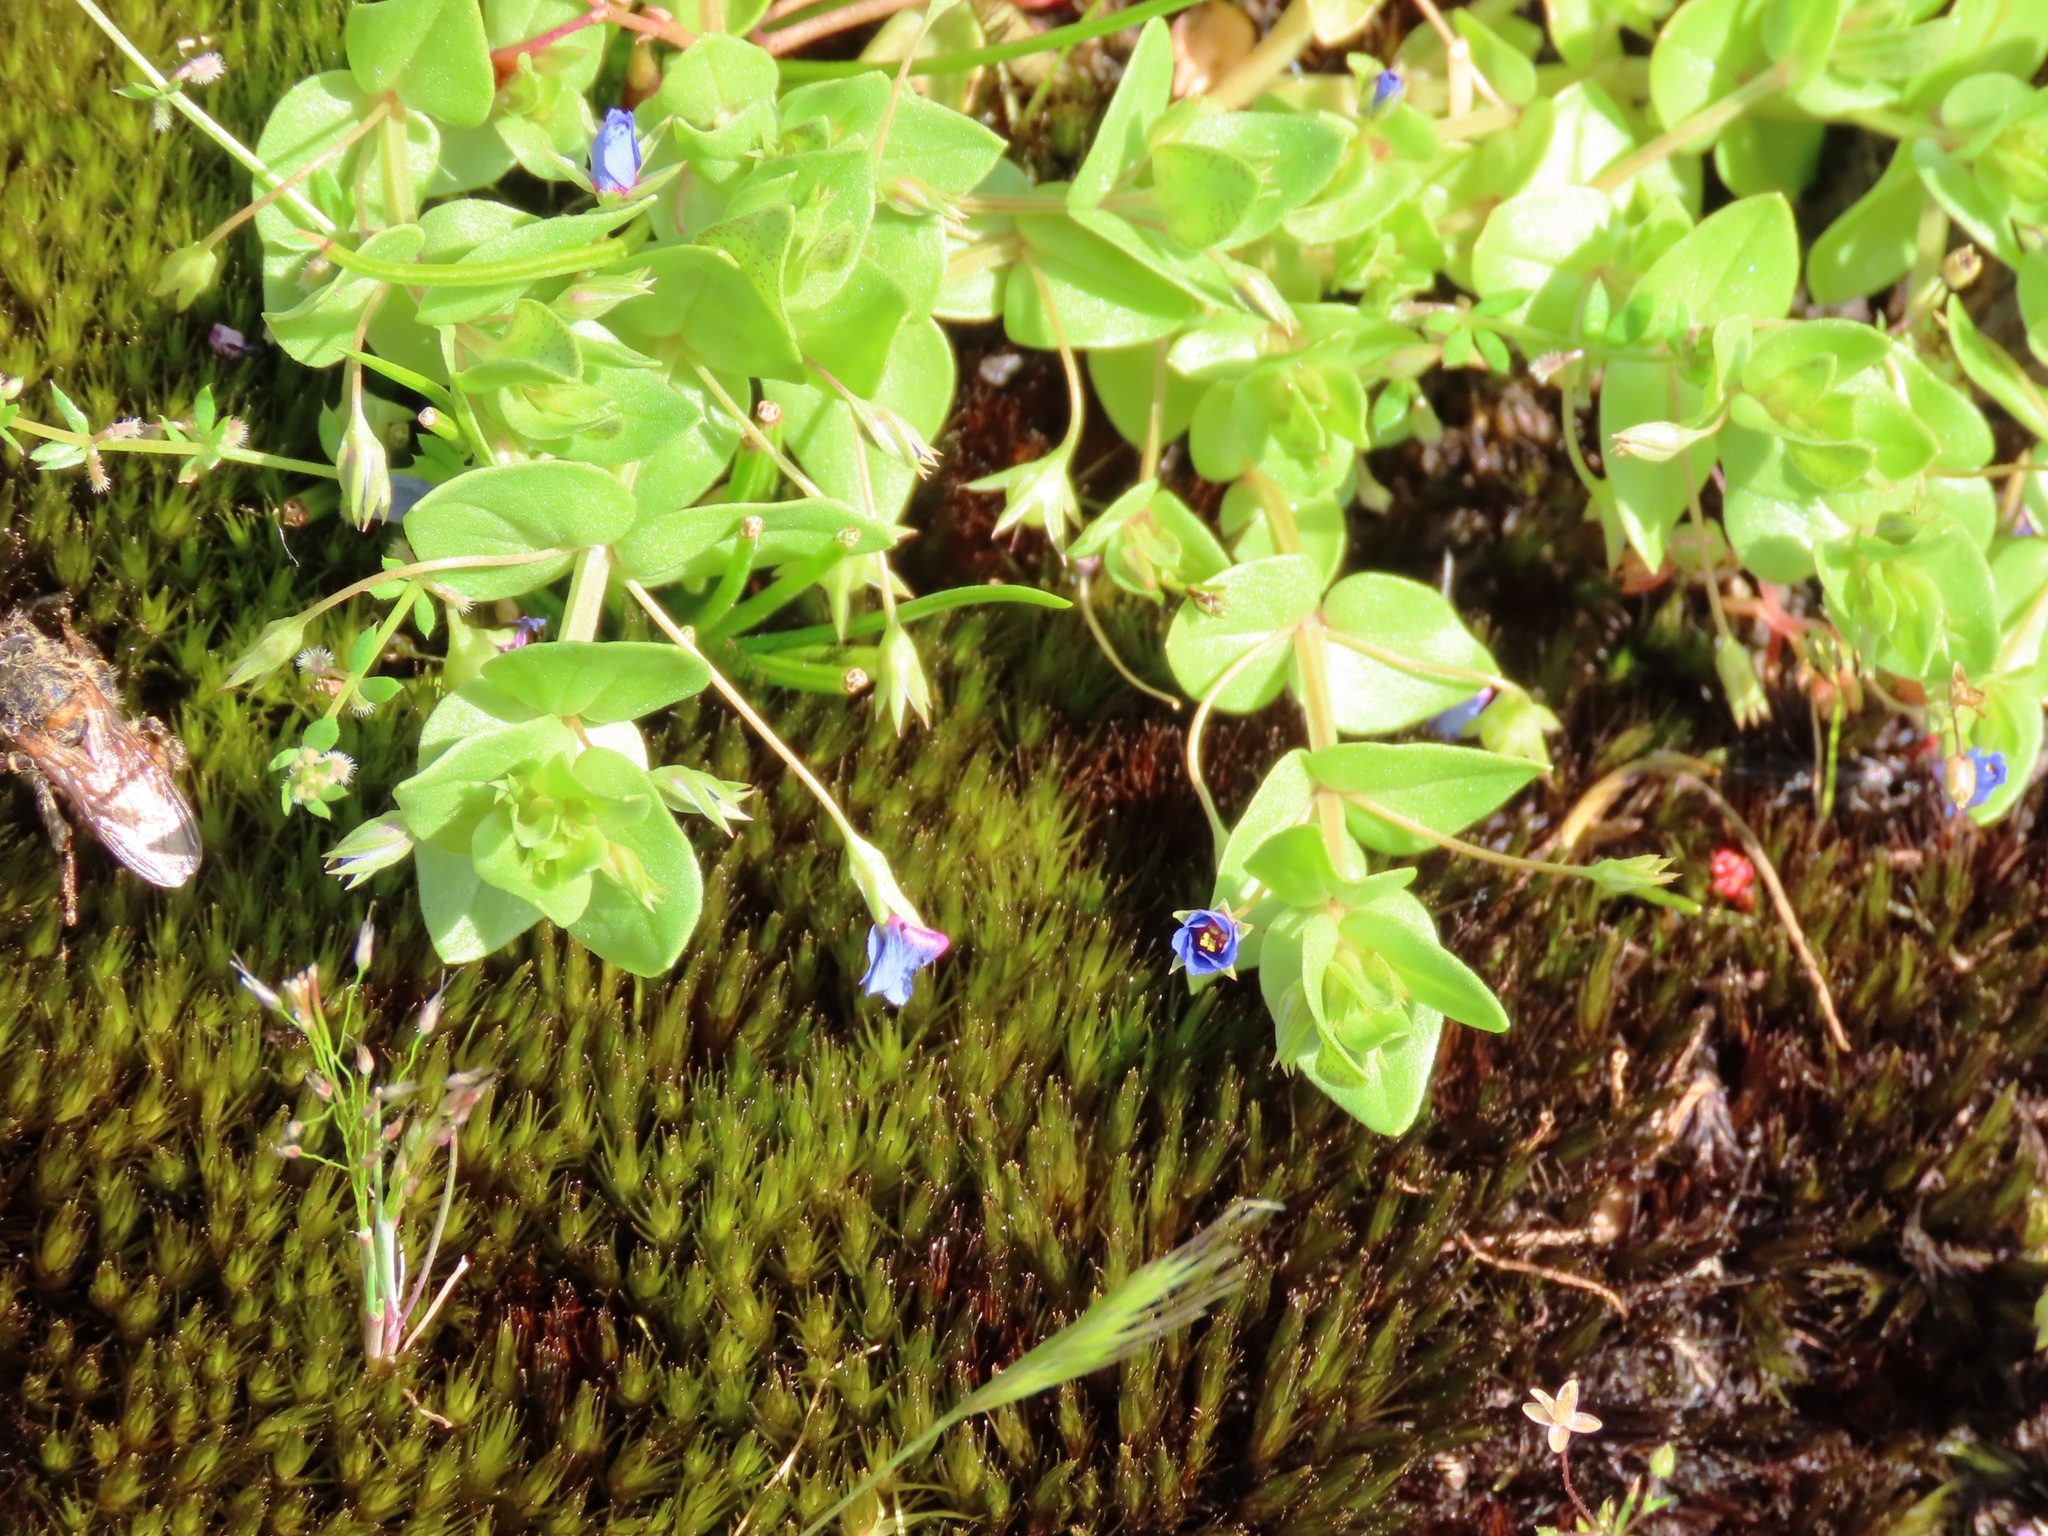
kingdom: Plantae
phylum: Tracheophyta
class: Magnoliopsida
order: Ericales
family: Primulaceae
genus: Lysimachia
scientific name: Lysimachia loeflingii
